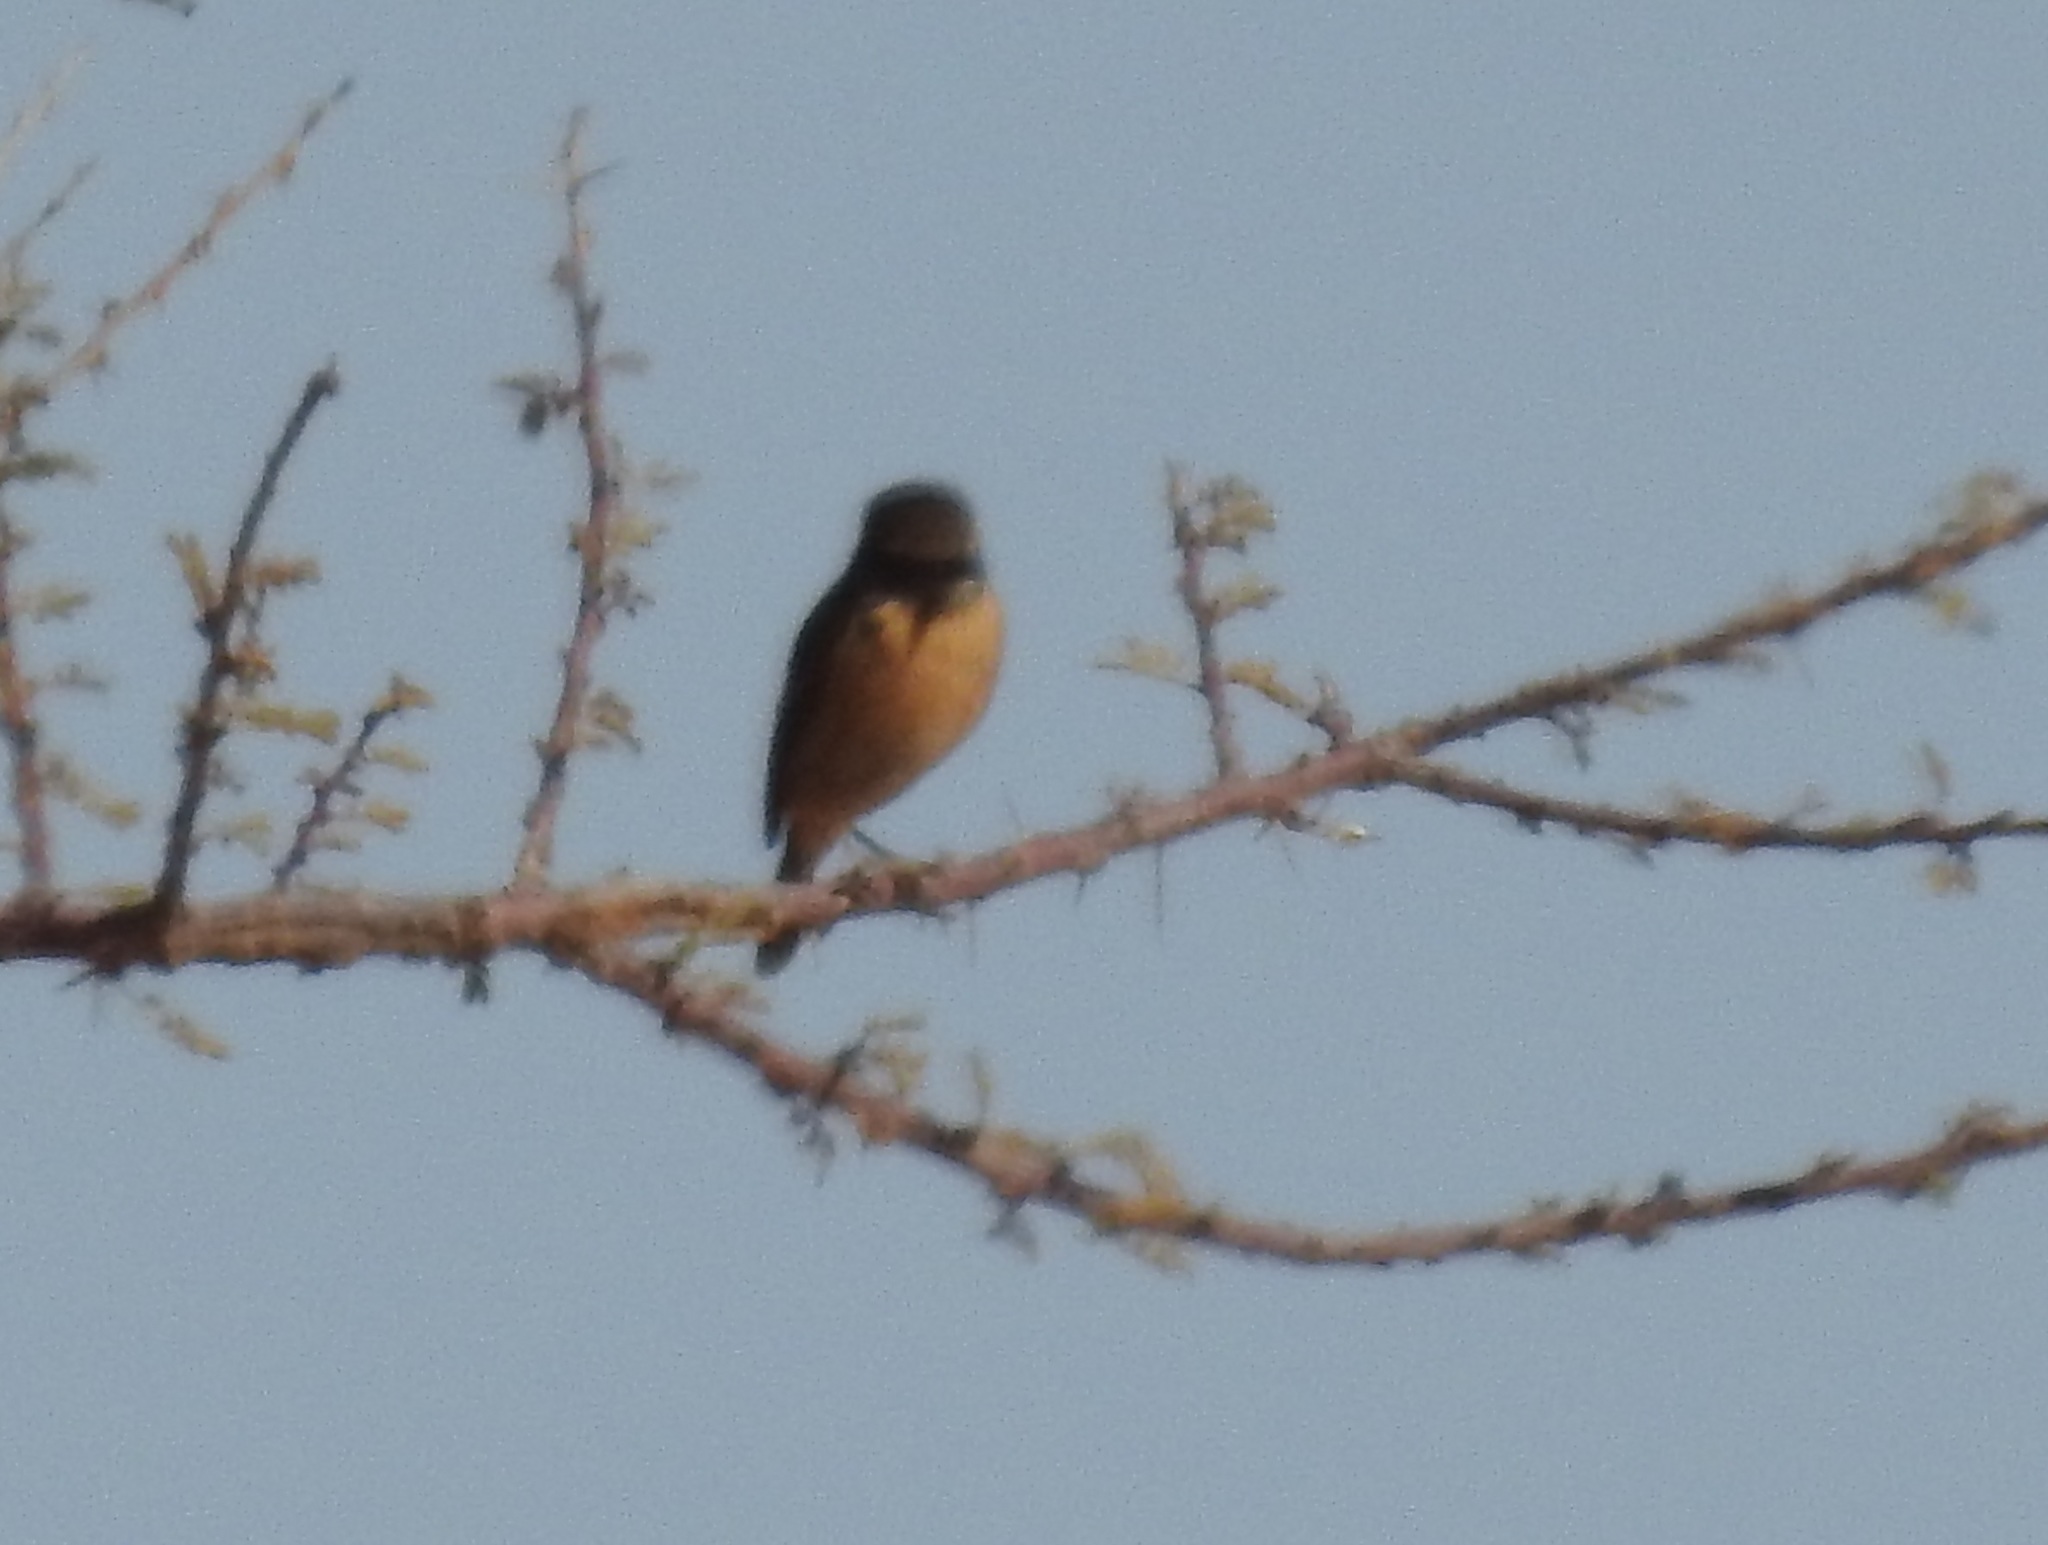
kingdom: Animalia
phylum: Chordata
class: Aves
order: Passeriformes
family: Muscicapidae
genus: Phoenicurus
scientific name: Phoenicurus phoenicurus
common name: Common redstart
